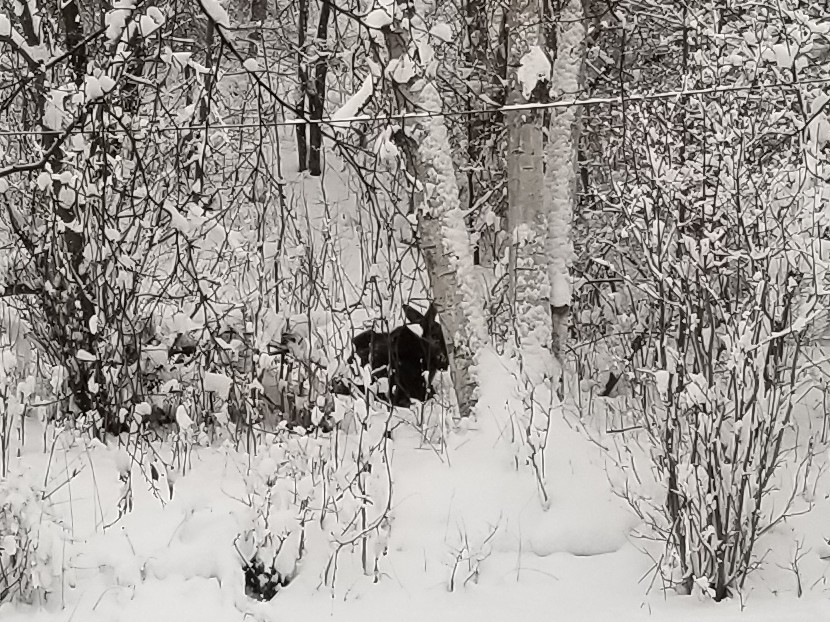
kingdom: Animalia
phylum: Chordata
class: Mammalia
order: Artiodactyla
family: Cervidae
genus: Alces
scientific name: Alces alces
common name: Moose
